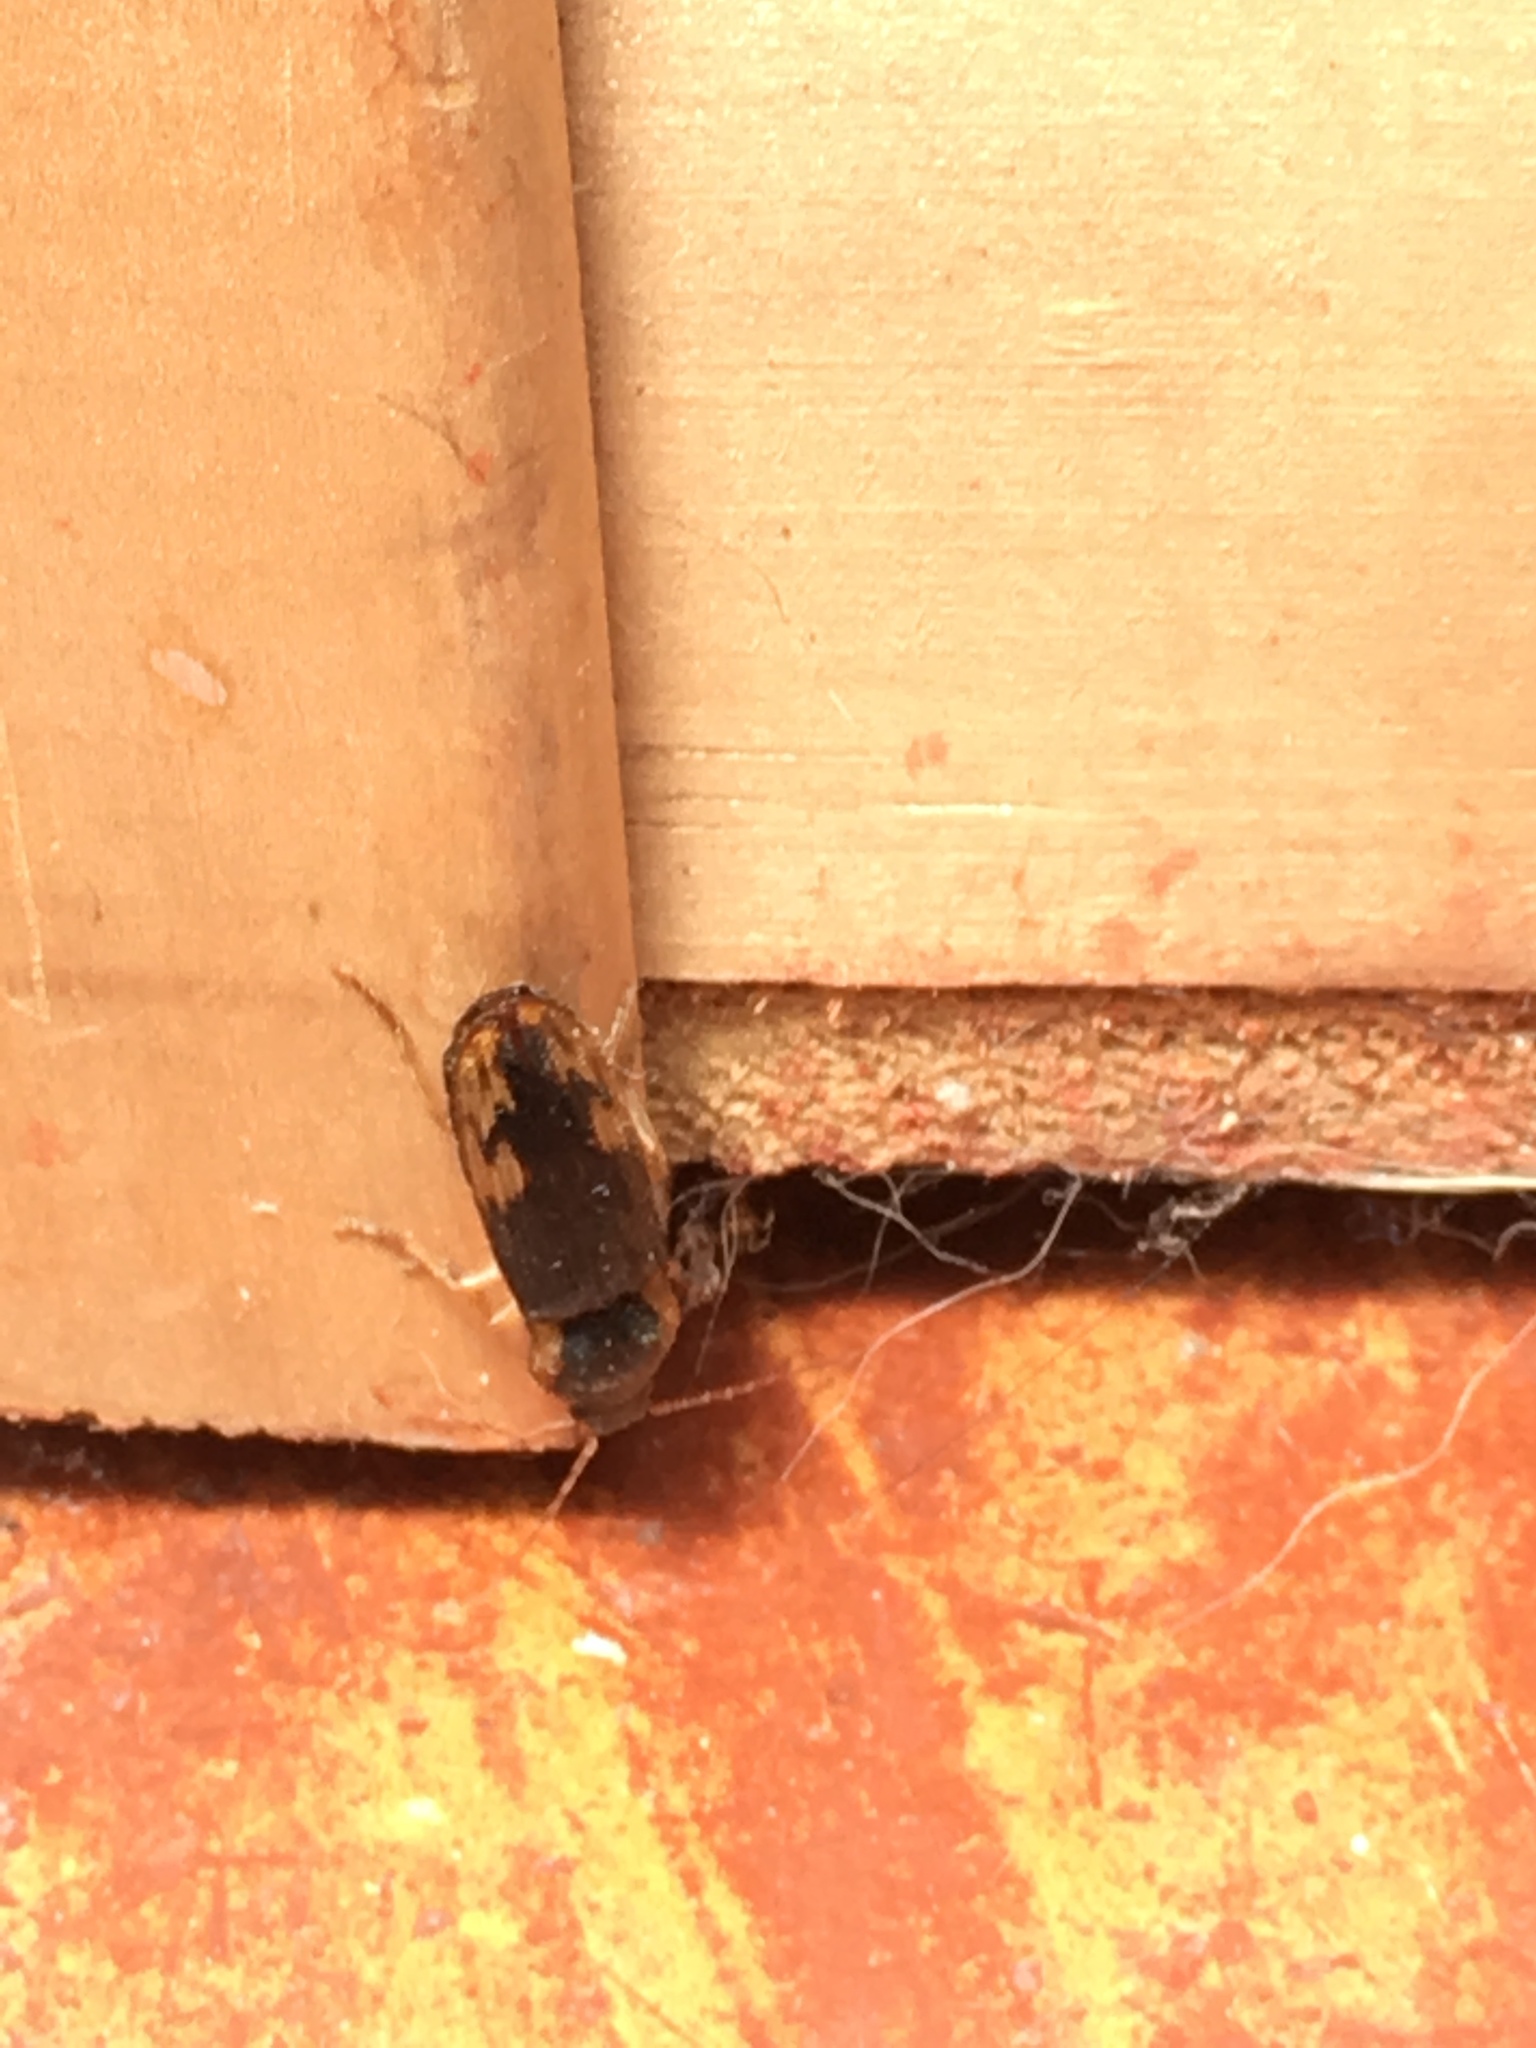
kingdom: Animalia
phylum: Arthropoda
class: Insecta
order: Coleoptera
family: Elateridae
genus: Monocrepidius
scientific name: Monocrepidius
